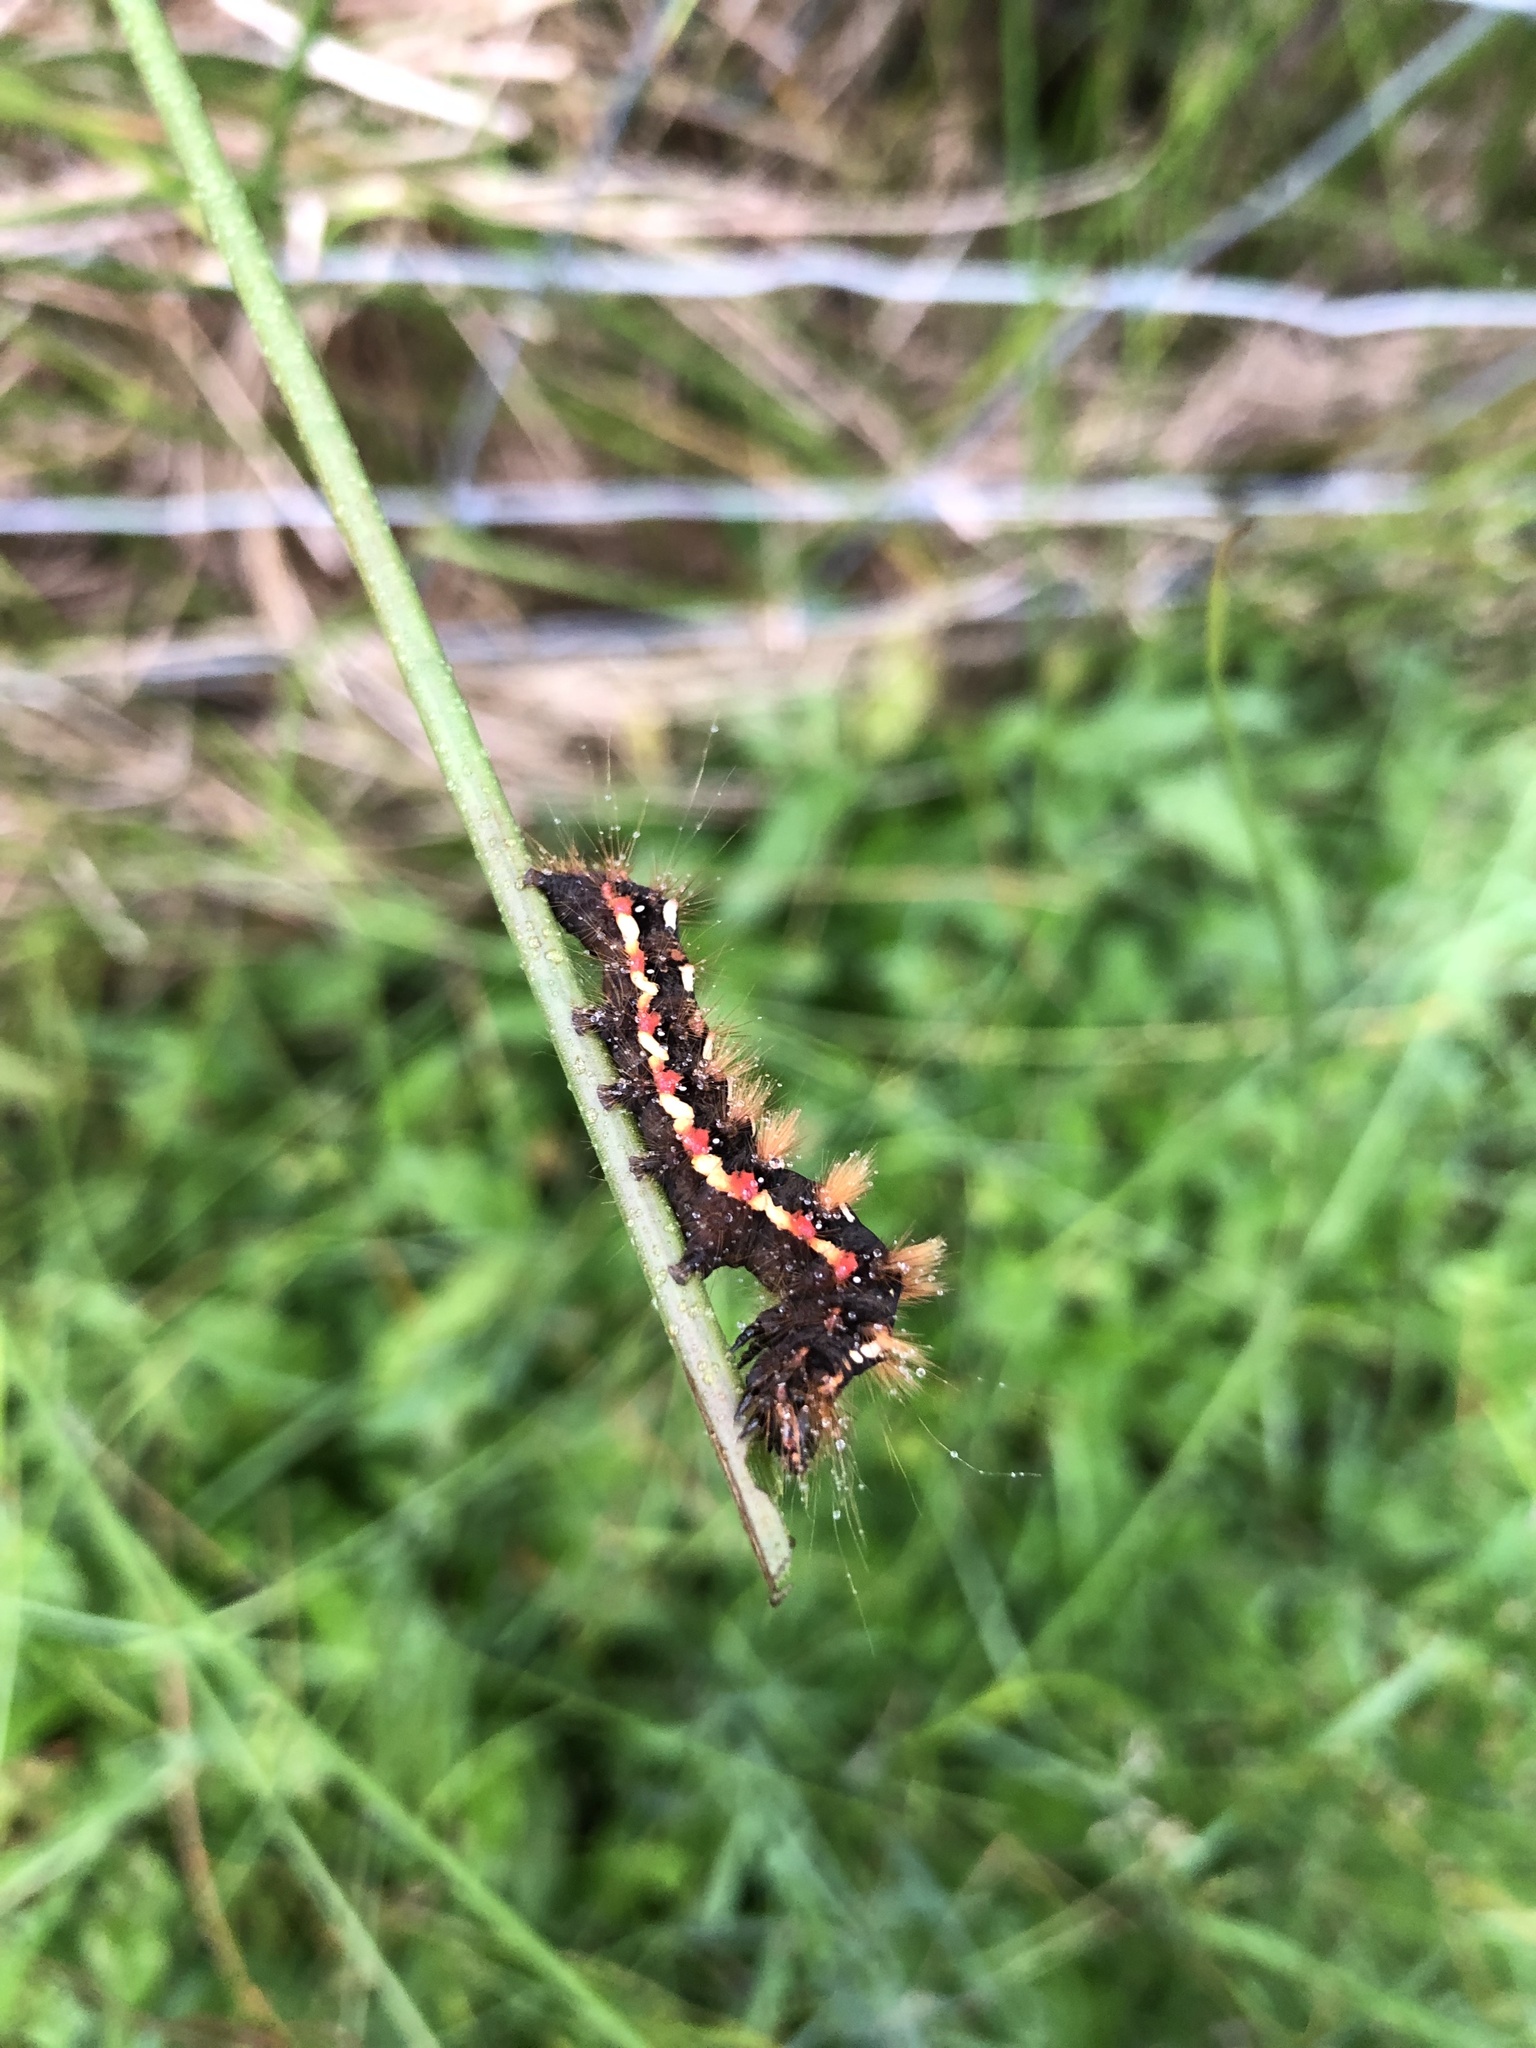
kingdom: Animalia
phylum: Arthropoda
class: Insecta
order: Lepidoptera
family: Noctuidae
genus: Acronicta
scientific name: Acronicta rumicis
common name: Knot grass
